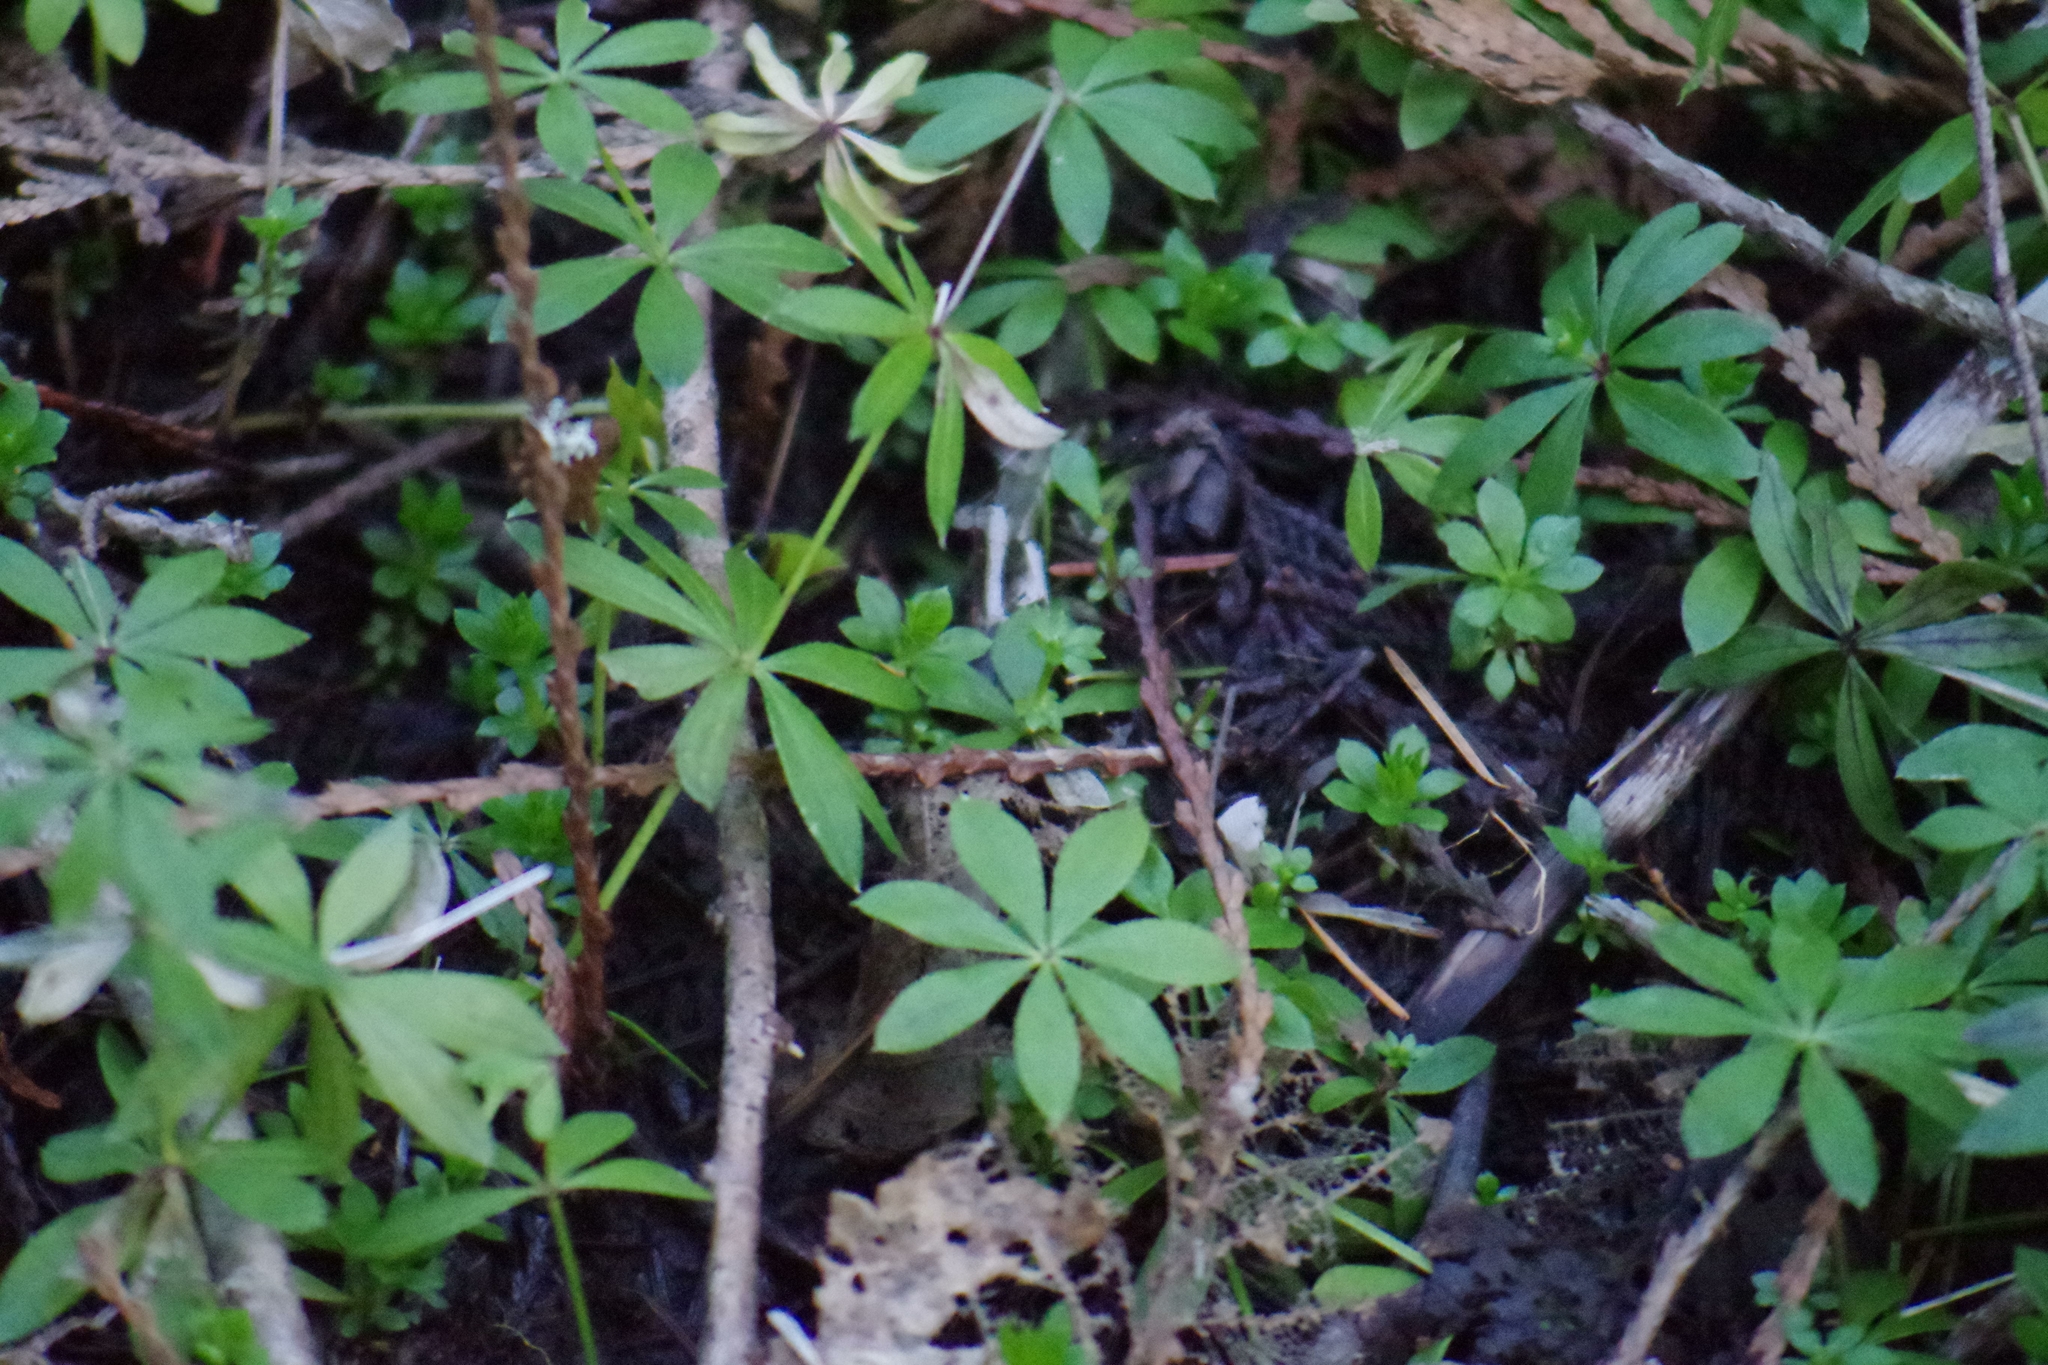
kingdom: Plantae
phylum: Tracheophyta
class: Magnoliopsida
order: Gentianales
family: Rubiaceae
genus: Galium
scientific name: Galium odoratum
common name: Sweet woodruff
